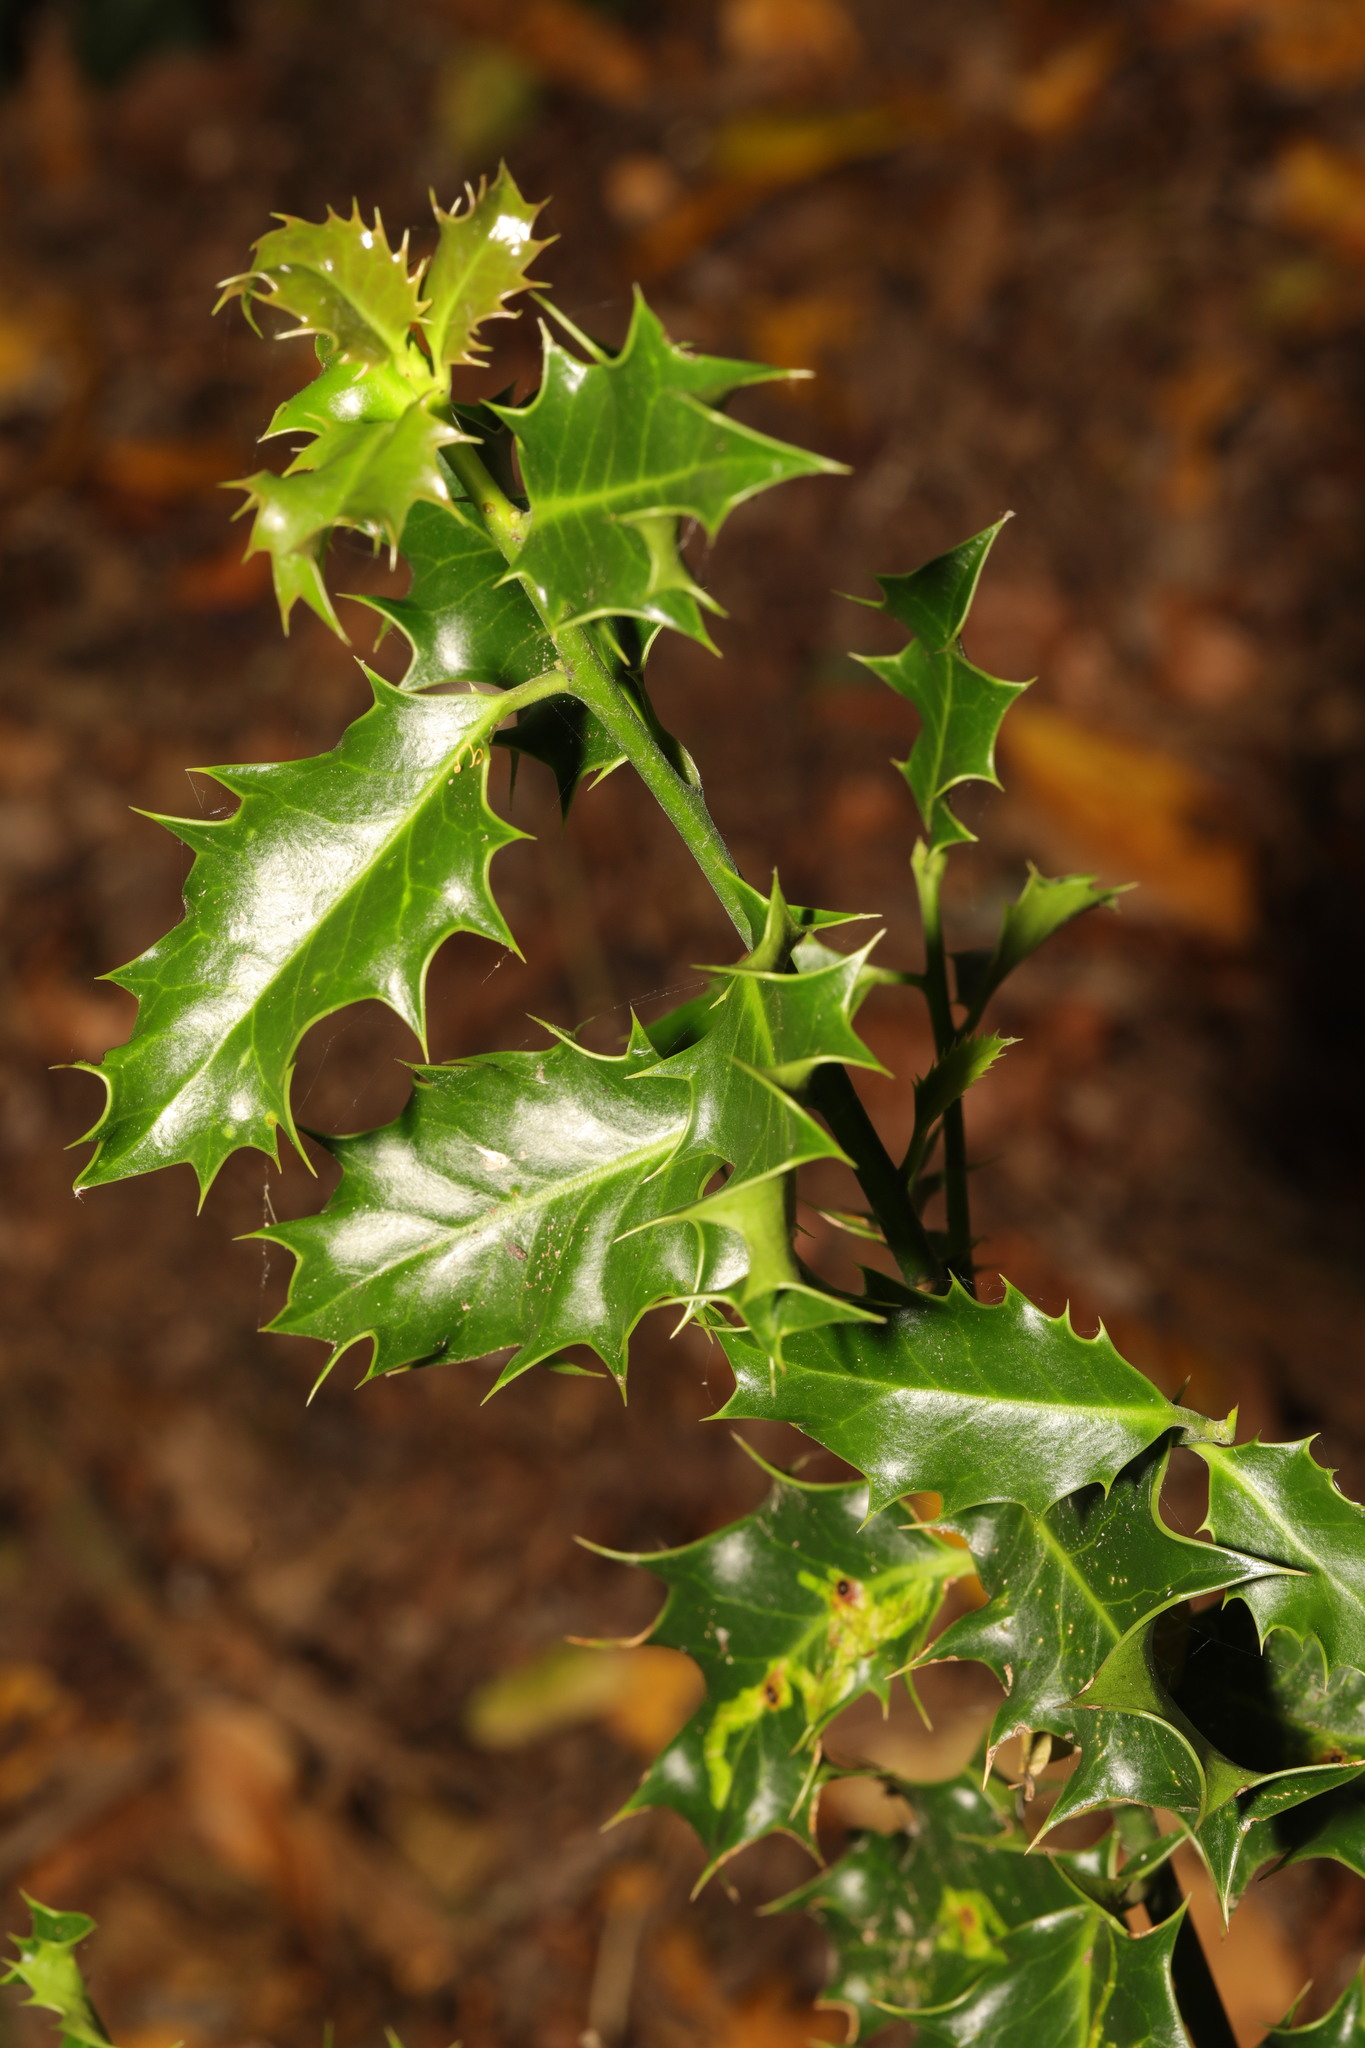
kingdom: Plantae
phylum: Tracheophyta
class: Magnoliopsida
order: Aquifoliales
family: Aquifoliaceae
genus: Ilex
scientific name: Ilex aquifolium
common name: English holly
